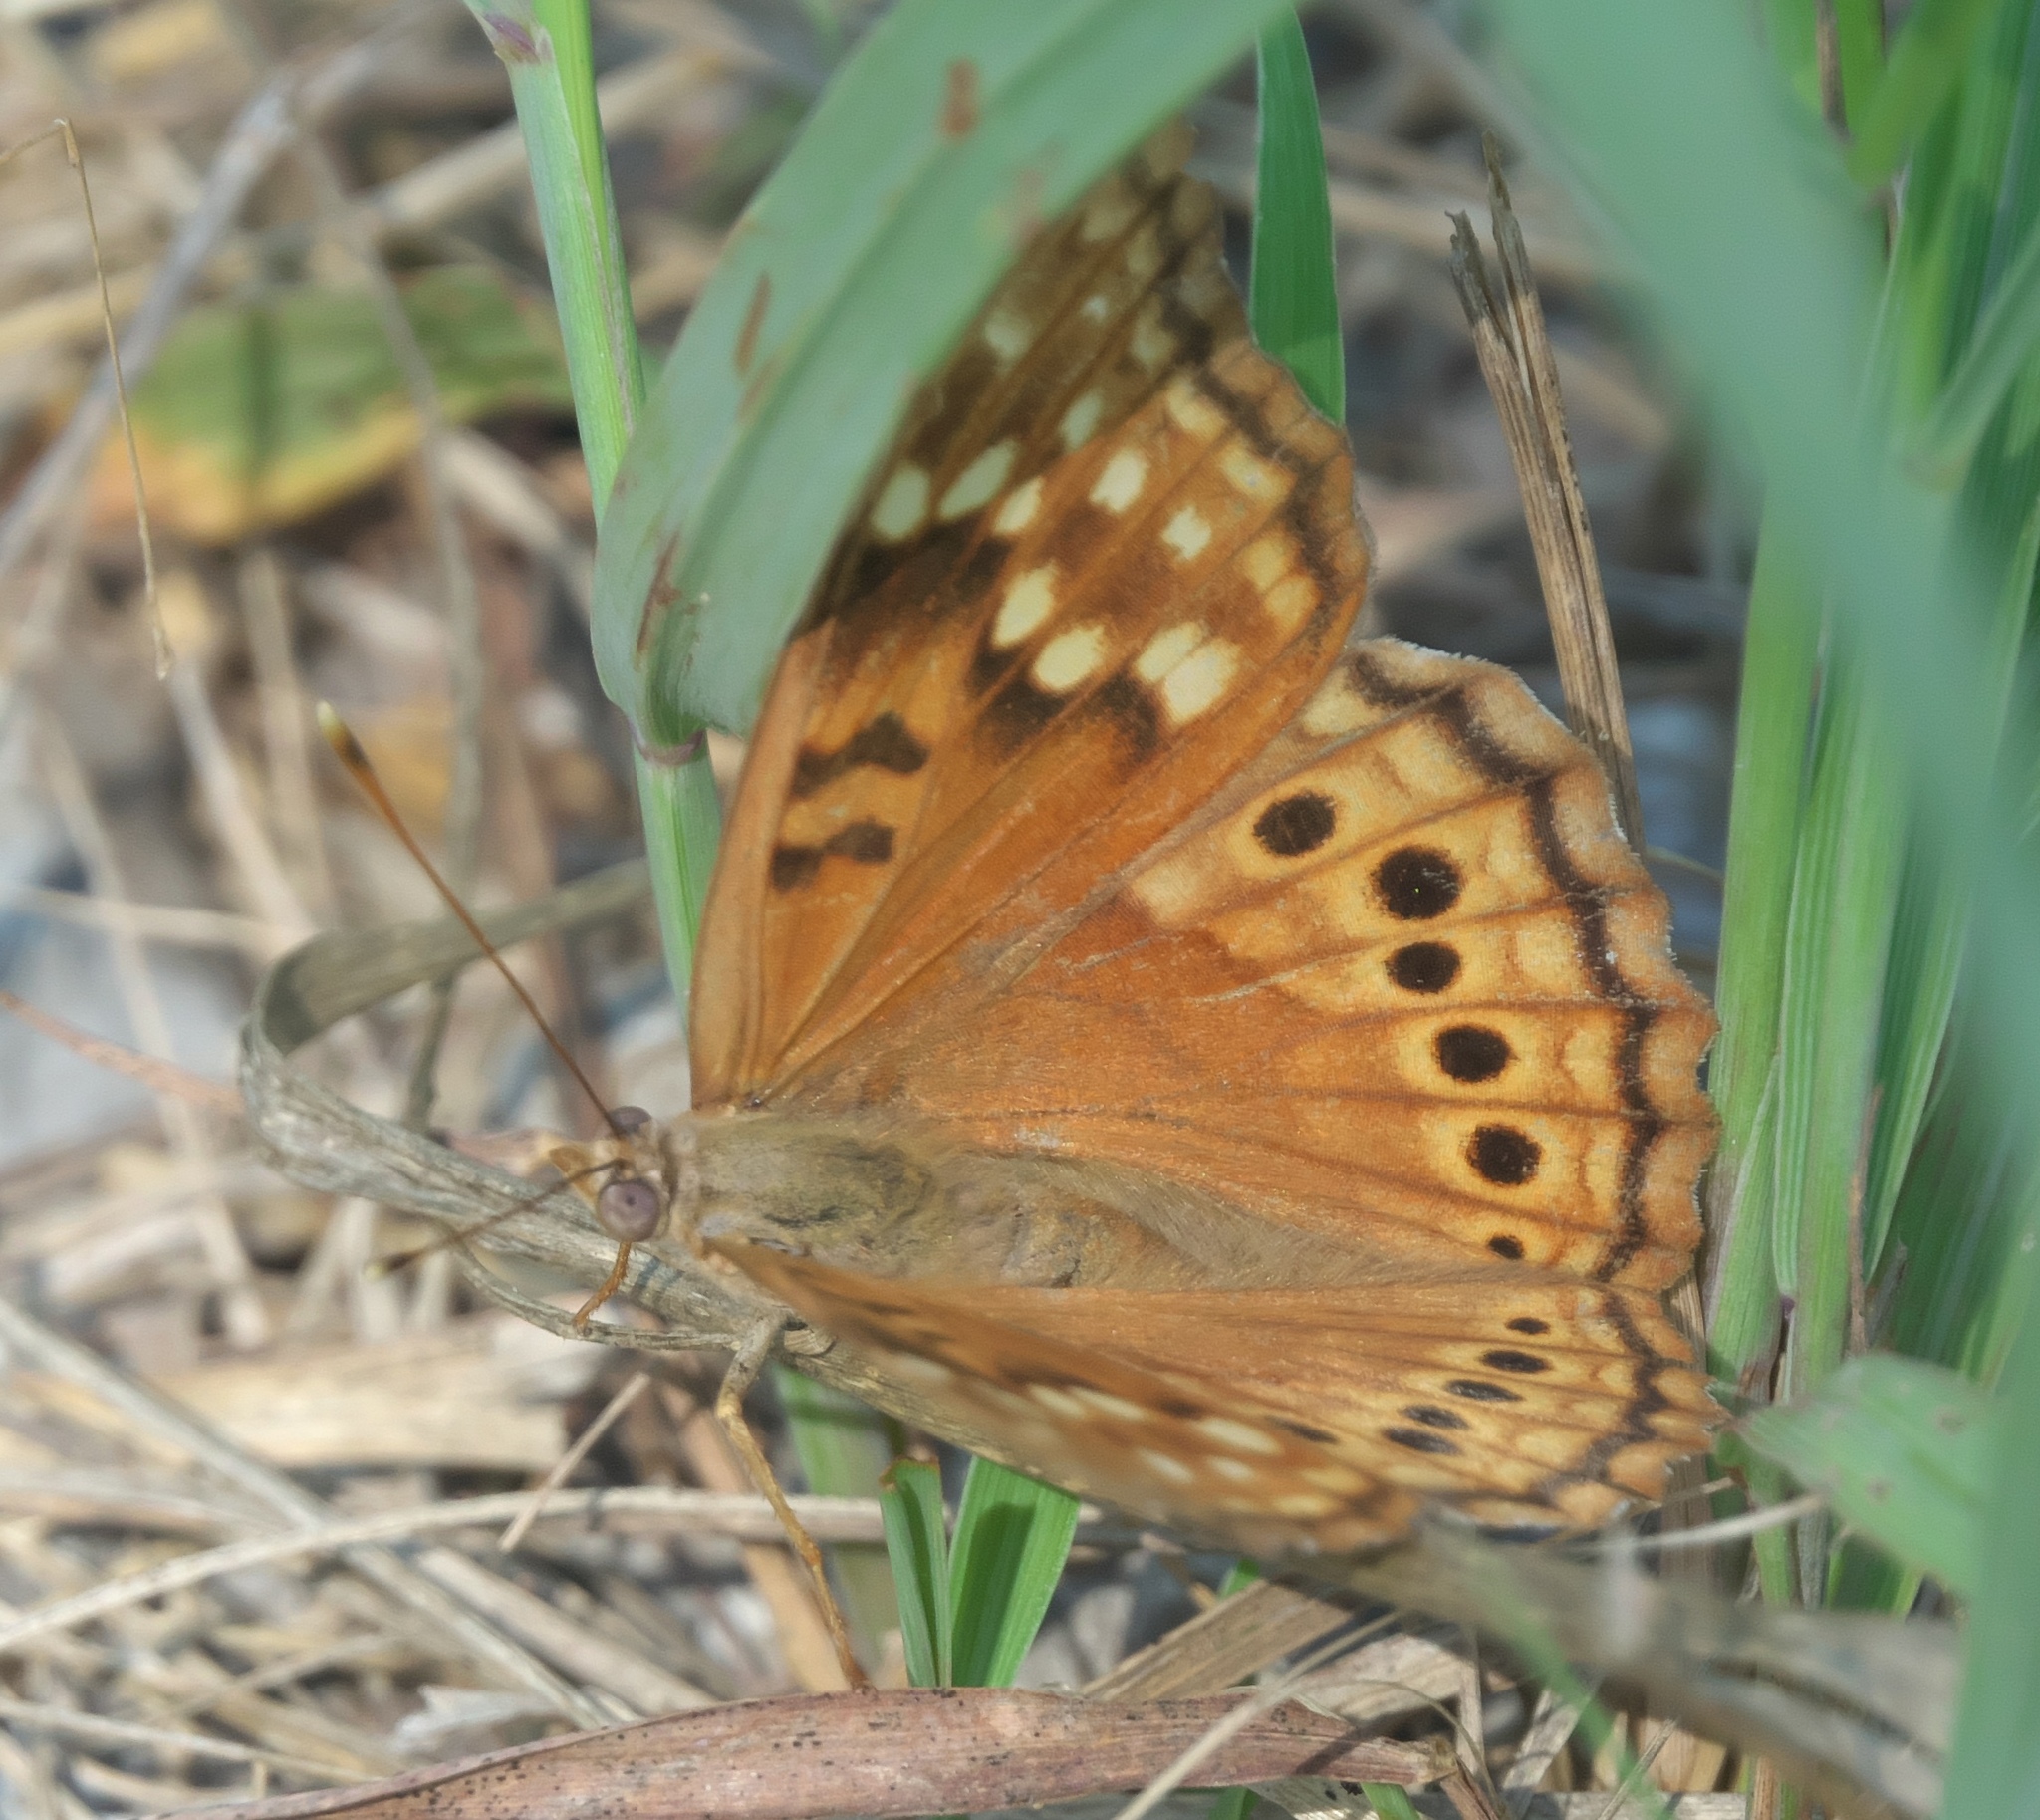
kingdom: Animalia
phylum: Arthropoda
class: Insecta
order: Lepidoptera
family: Nymphalidae
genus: Asterocampa
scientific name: Asterocampa clyton
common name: Tawny emperor
